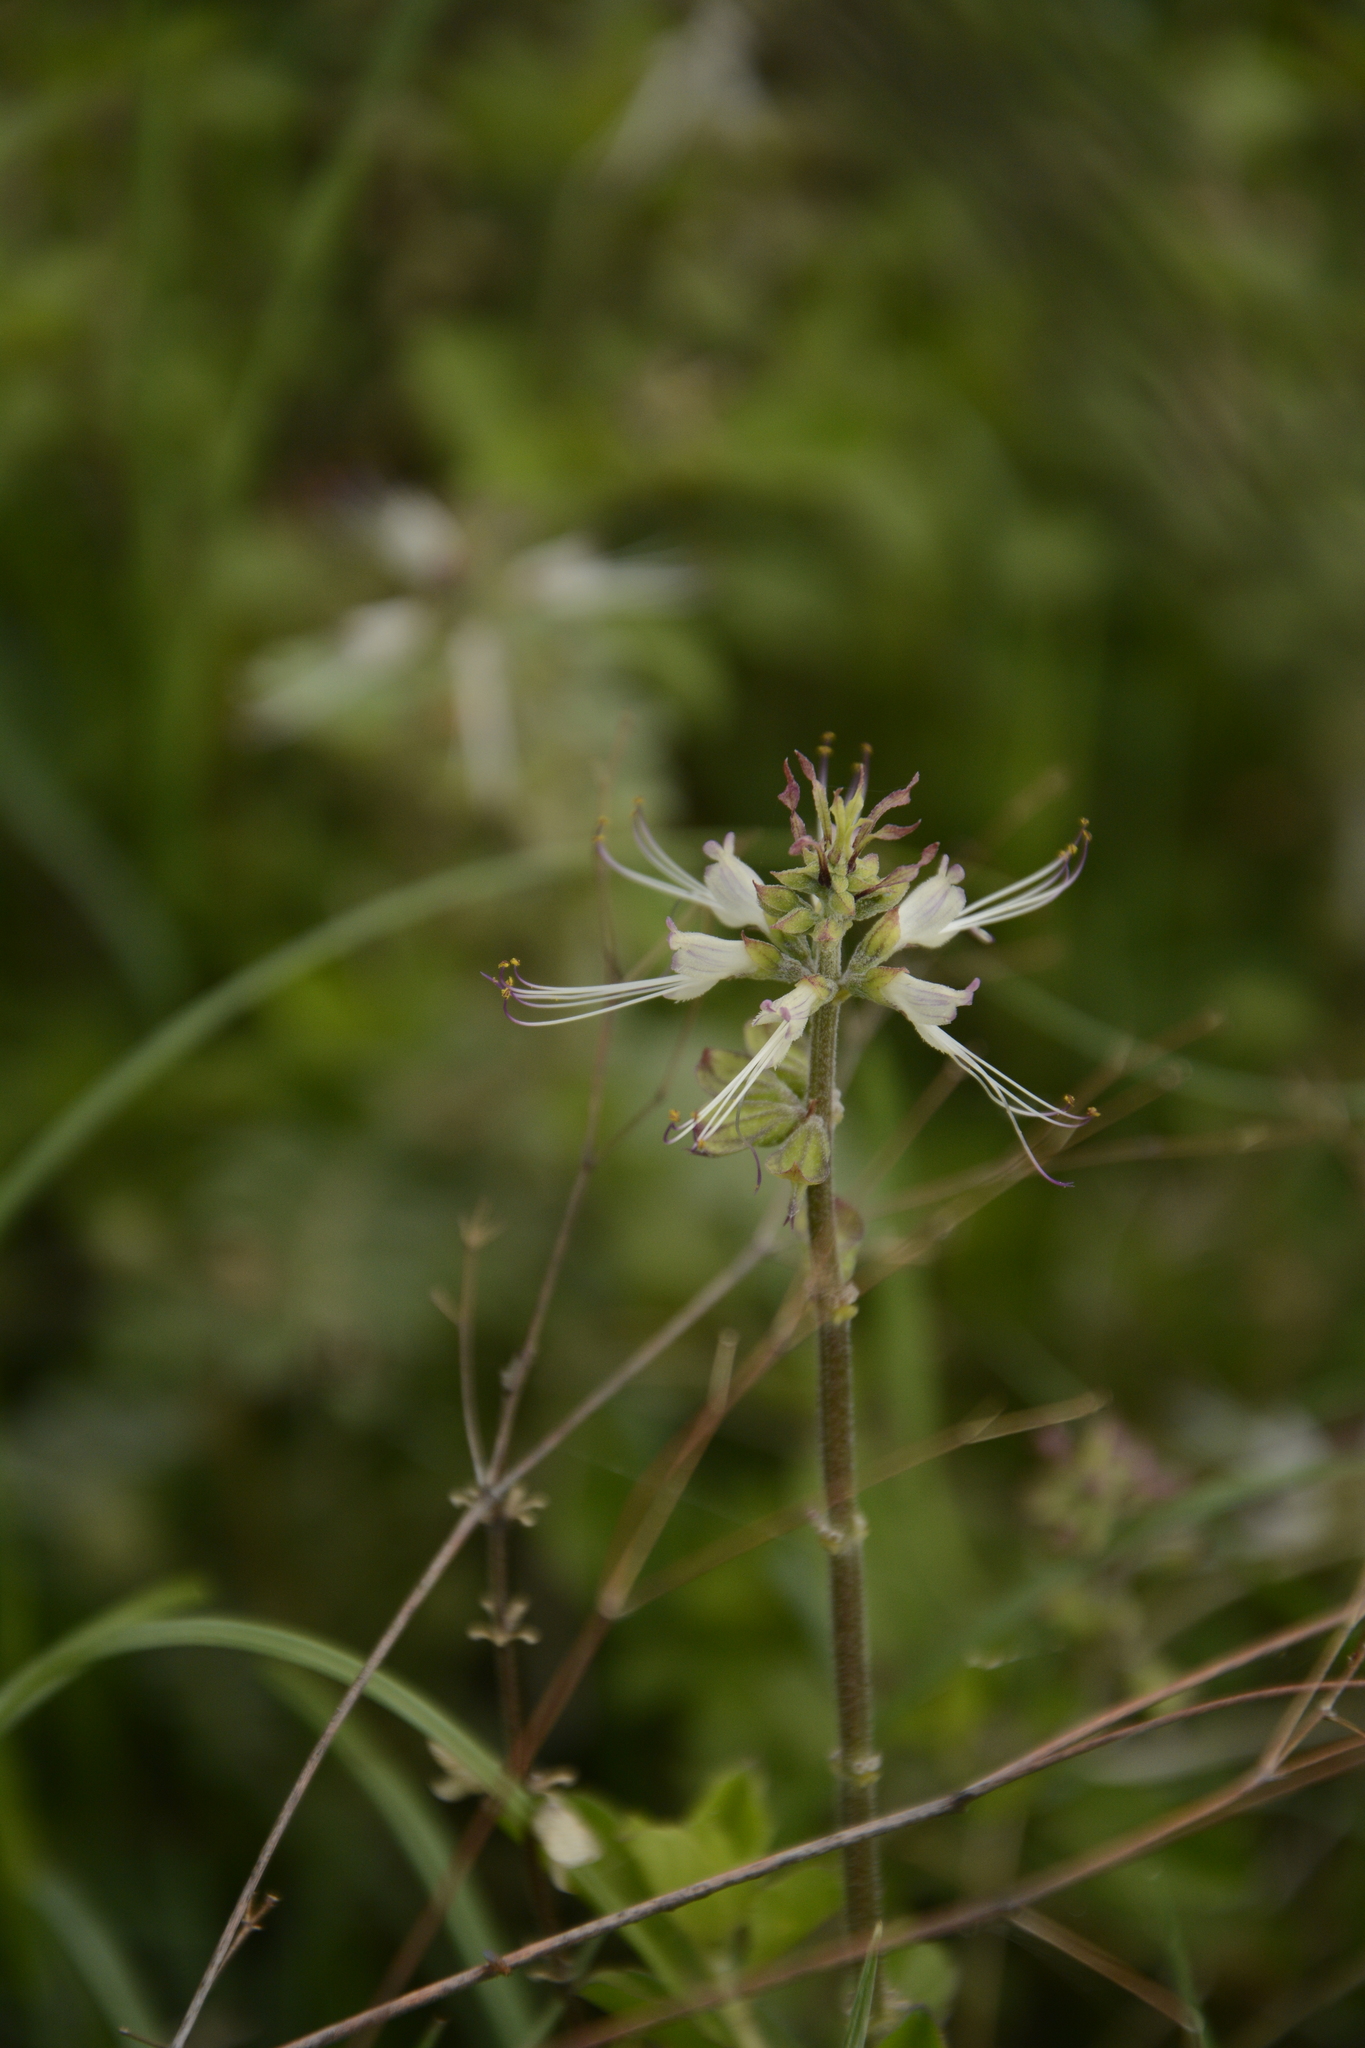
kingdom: Plantae
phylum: Tracheophyta
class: Magnoliopsida
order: Lamiales
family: Lamiaceae
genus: Orthosiphon
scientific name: Orthosiphon aristatus
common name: Whiskerplant
